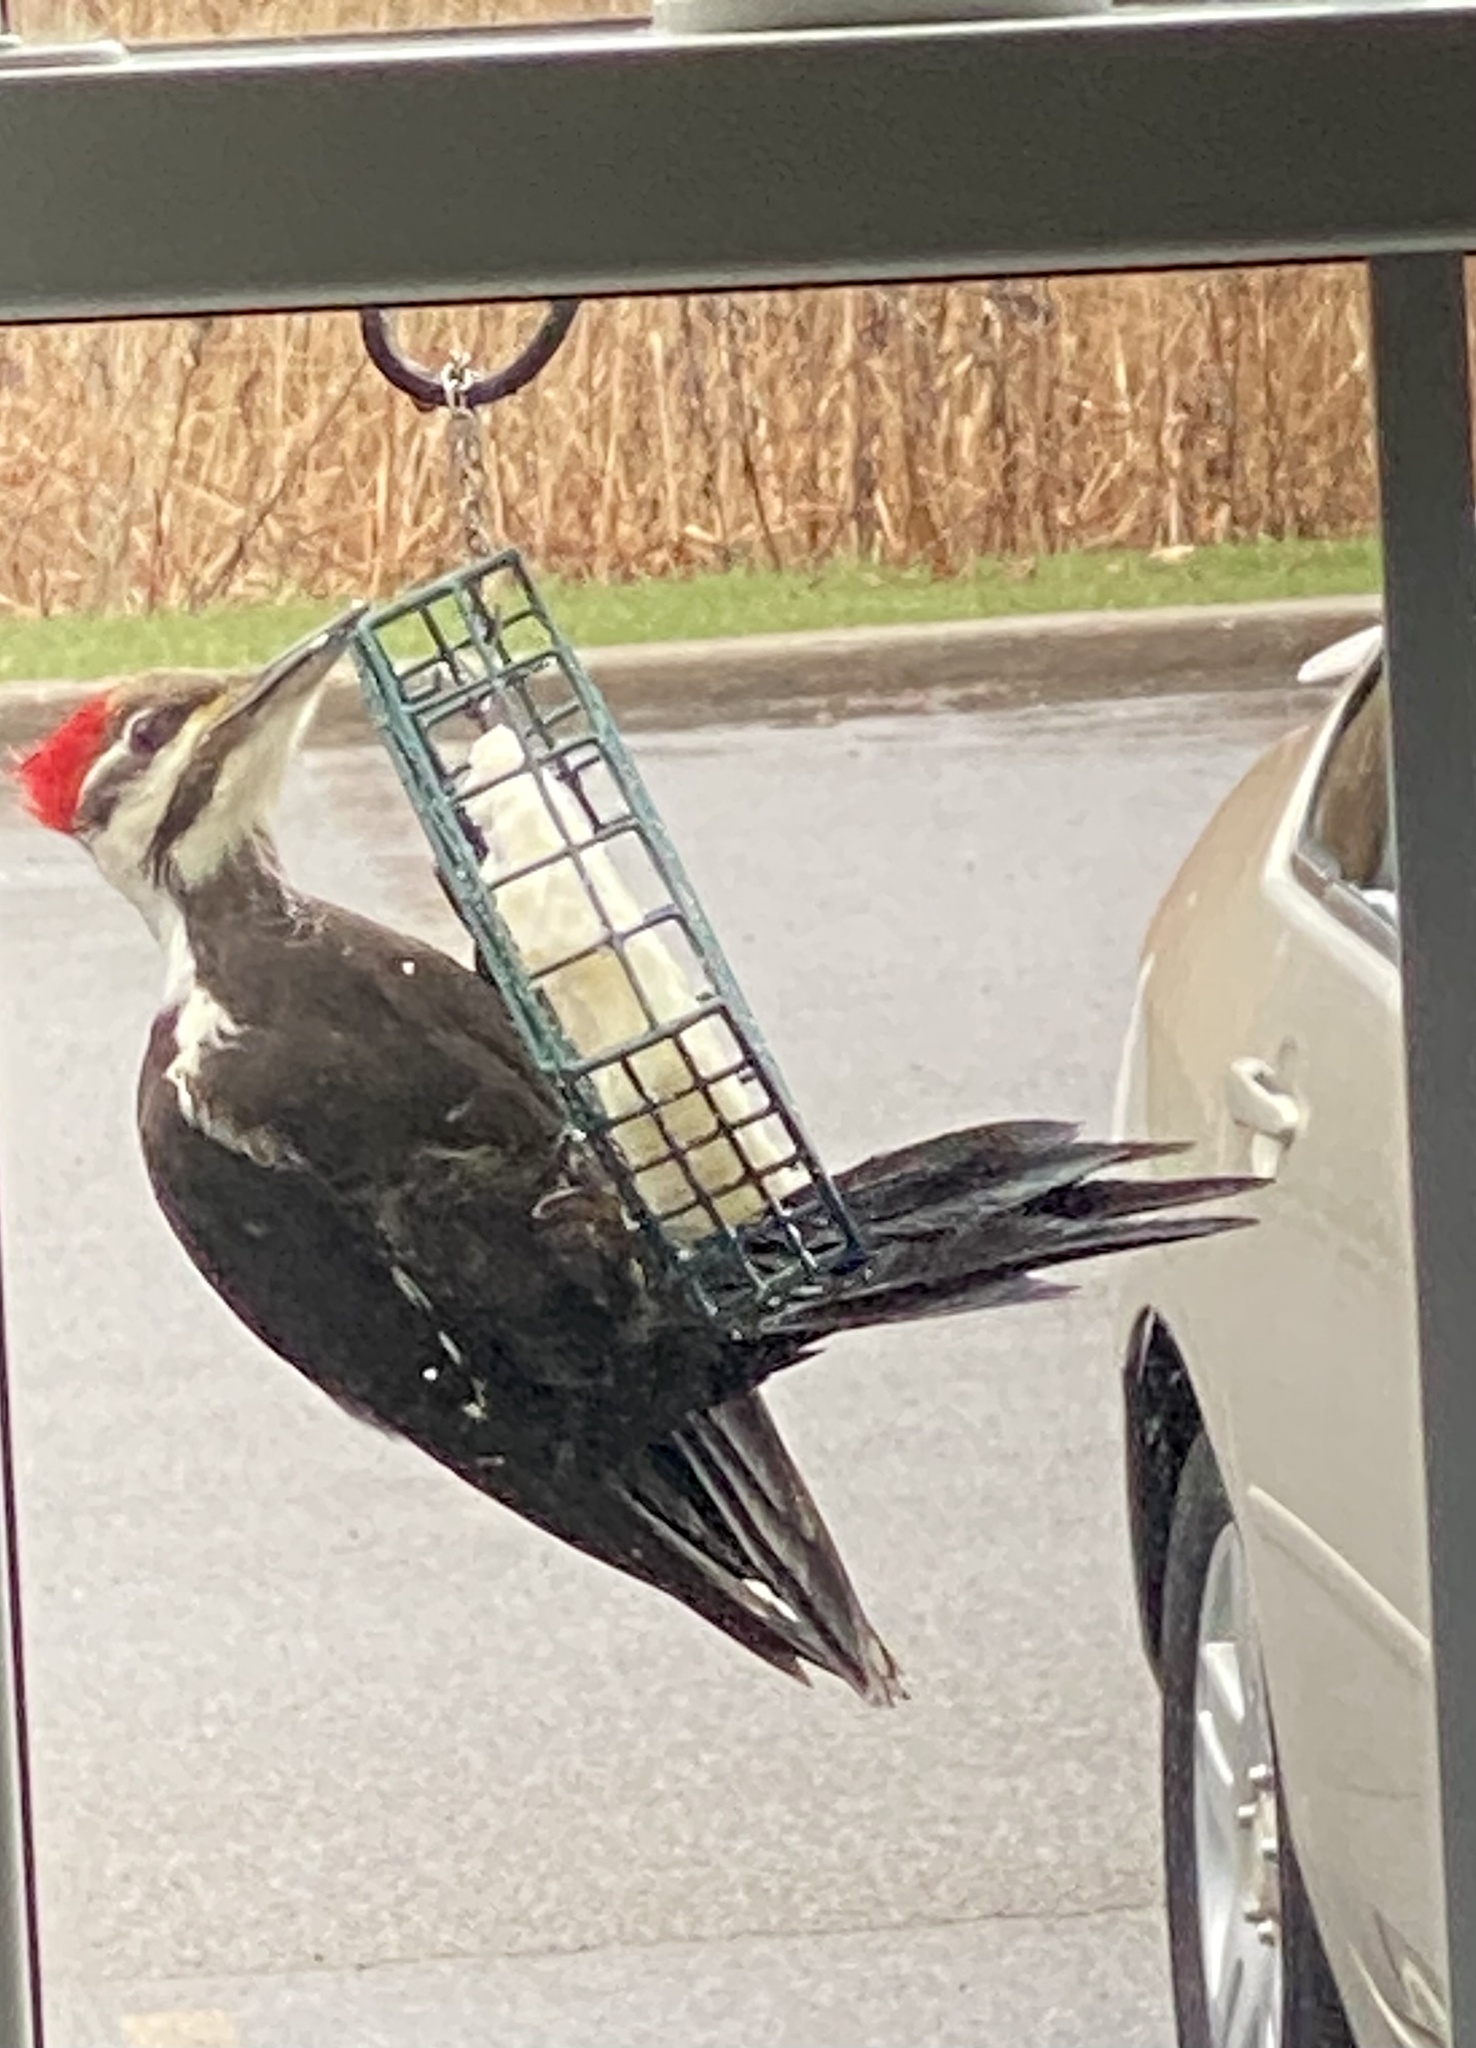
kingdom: Animalia
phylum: Chordata
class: Aves
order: Piciformes
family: Picidae
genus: Dryocopus
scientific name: Dryocopus pileatus
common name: Pileated woodpecker
